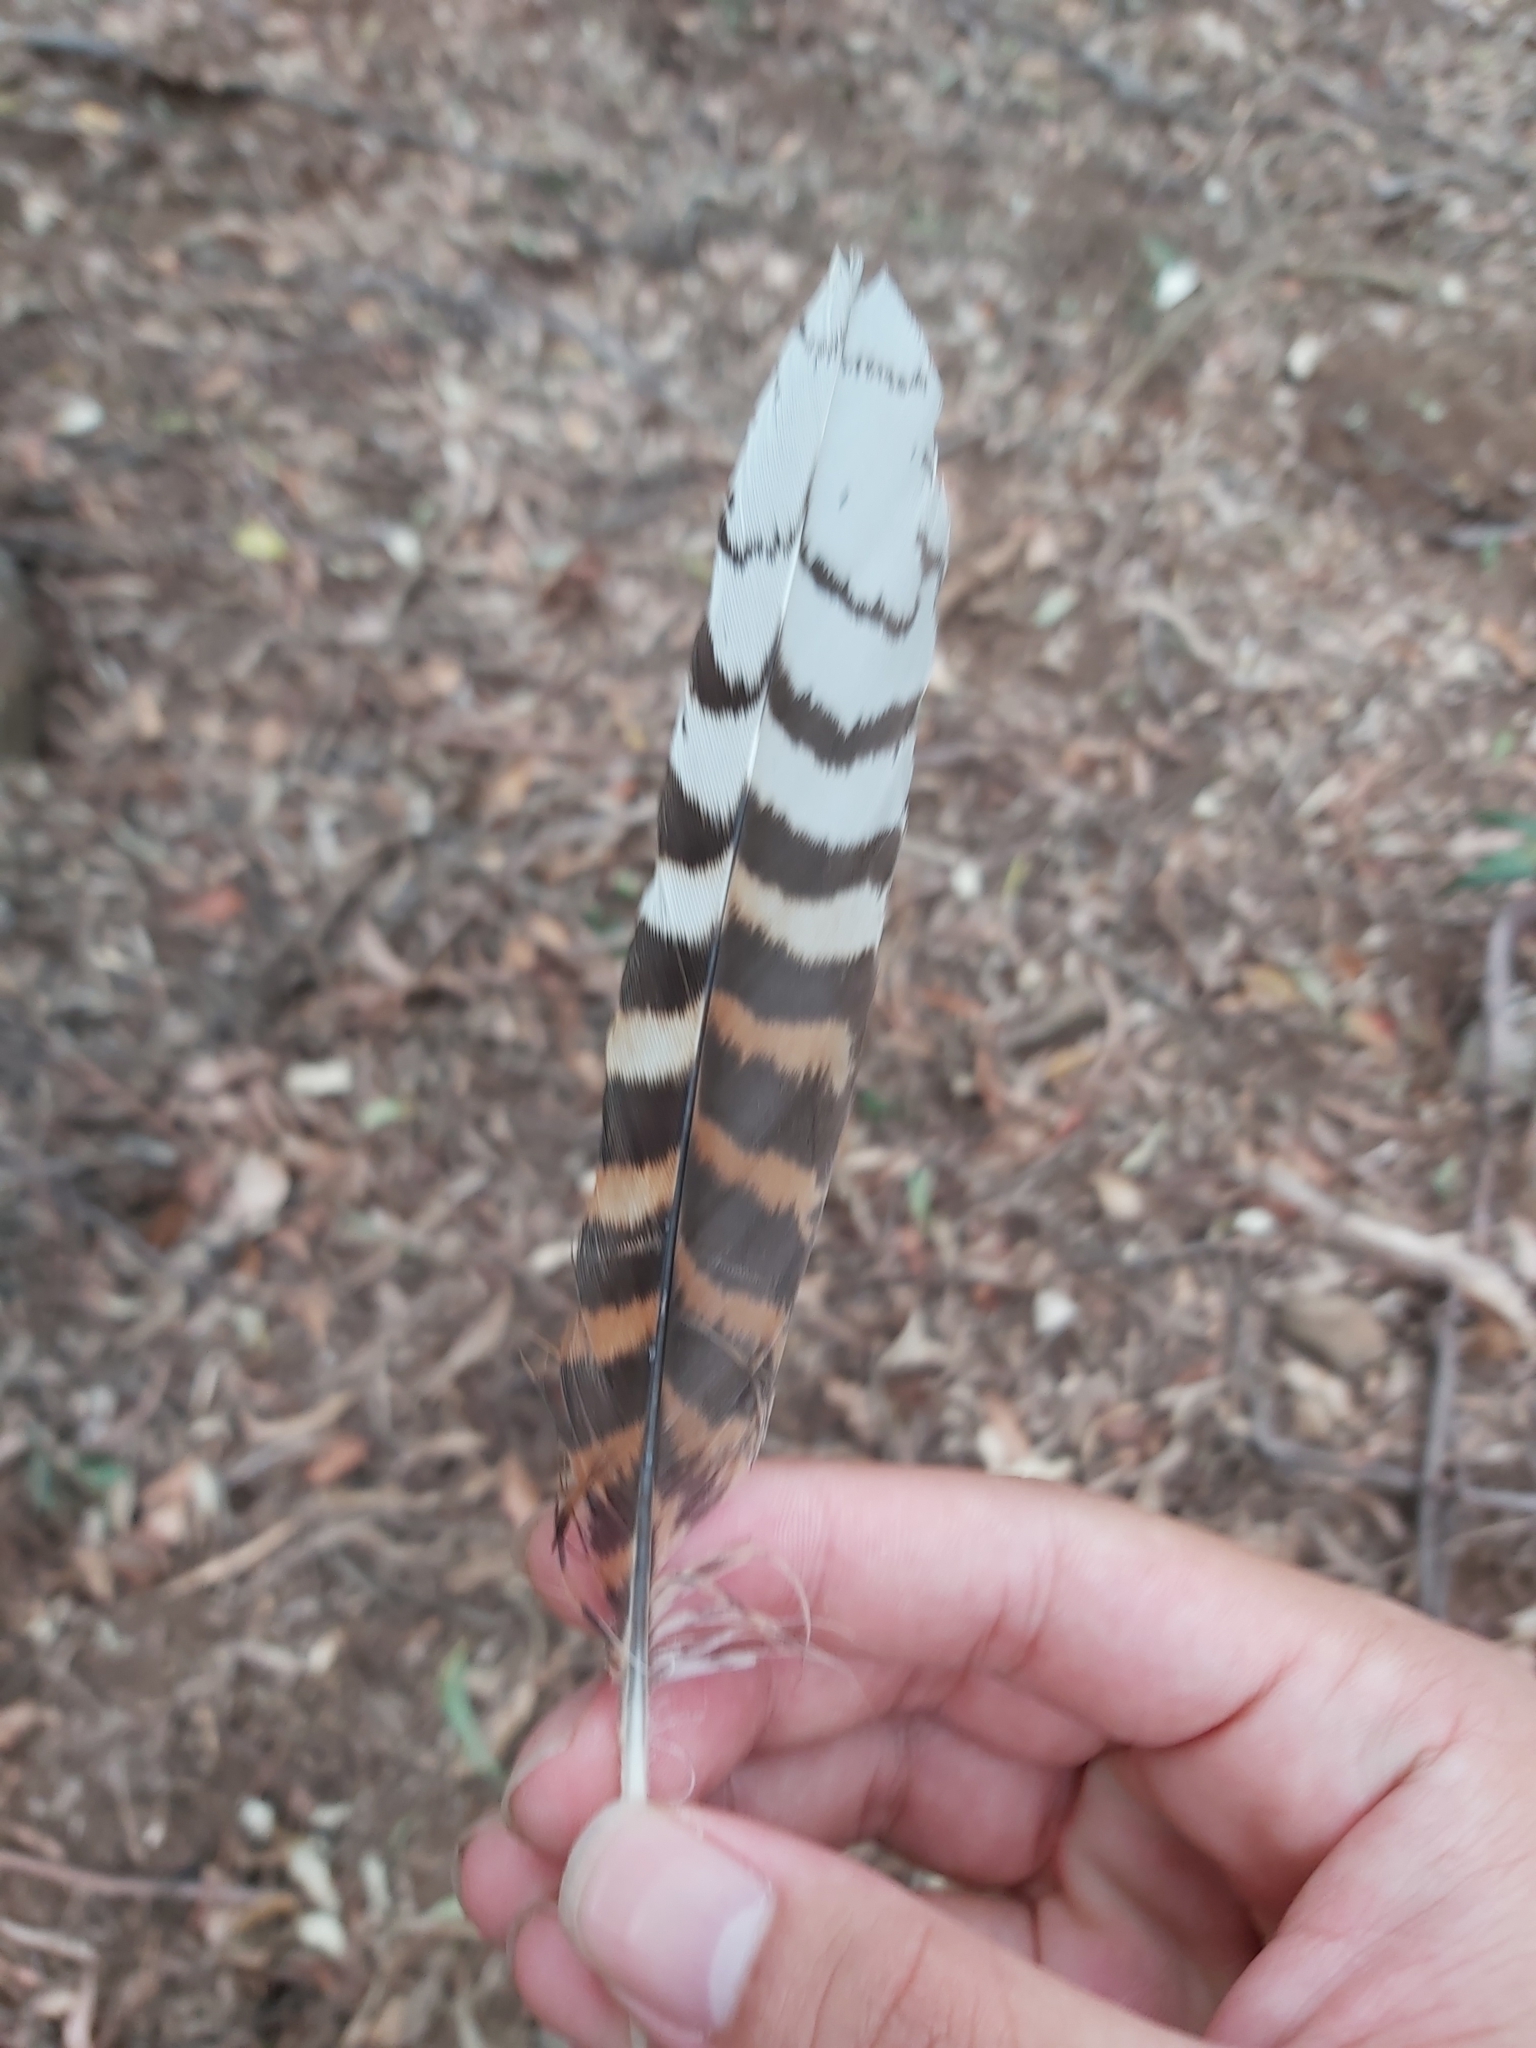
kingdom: Animalia
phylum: Chordata
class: Aves
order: Coraciiformes
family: Alcedinidae
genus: Dacelo
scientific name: Dacelo novaeguineae
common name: Laughing kookaburra
